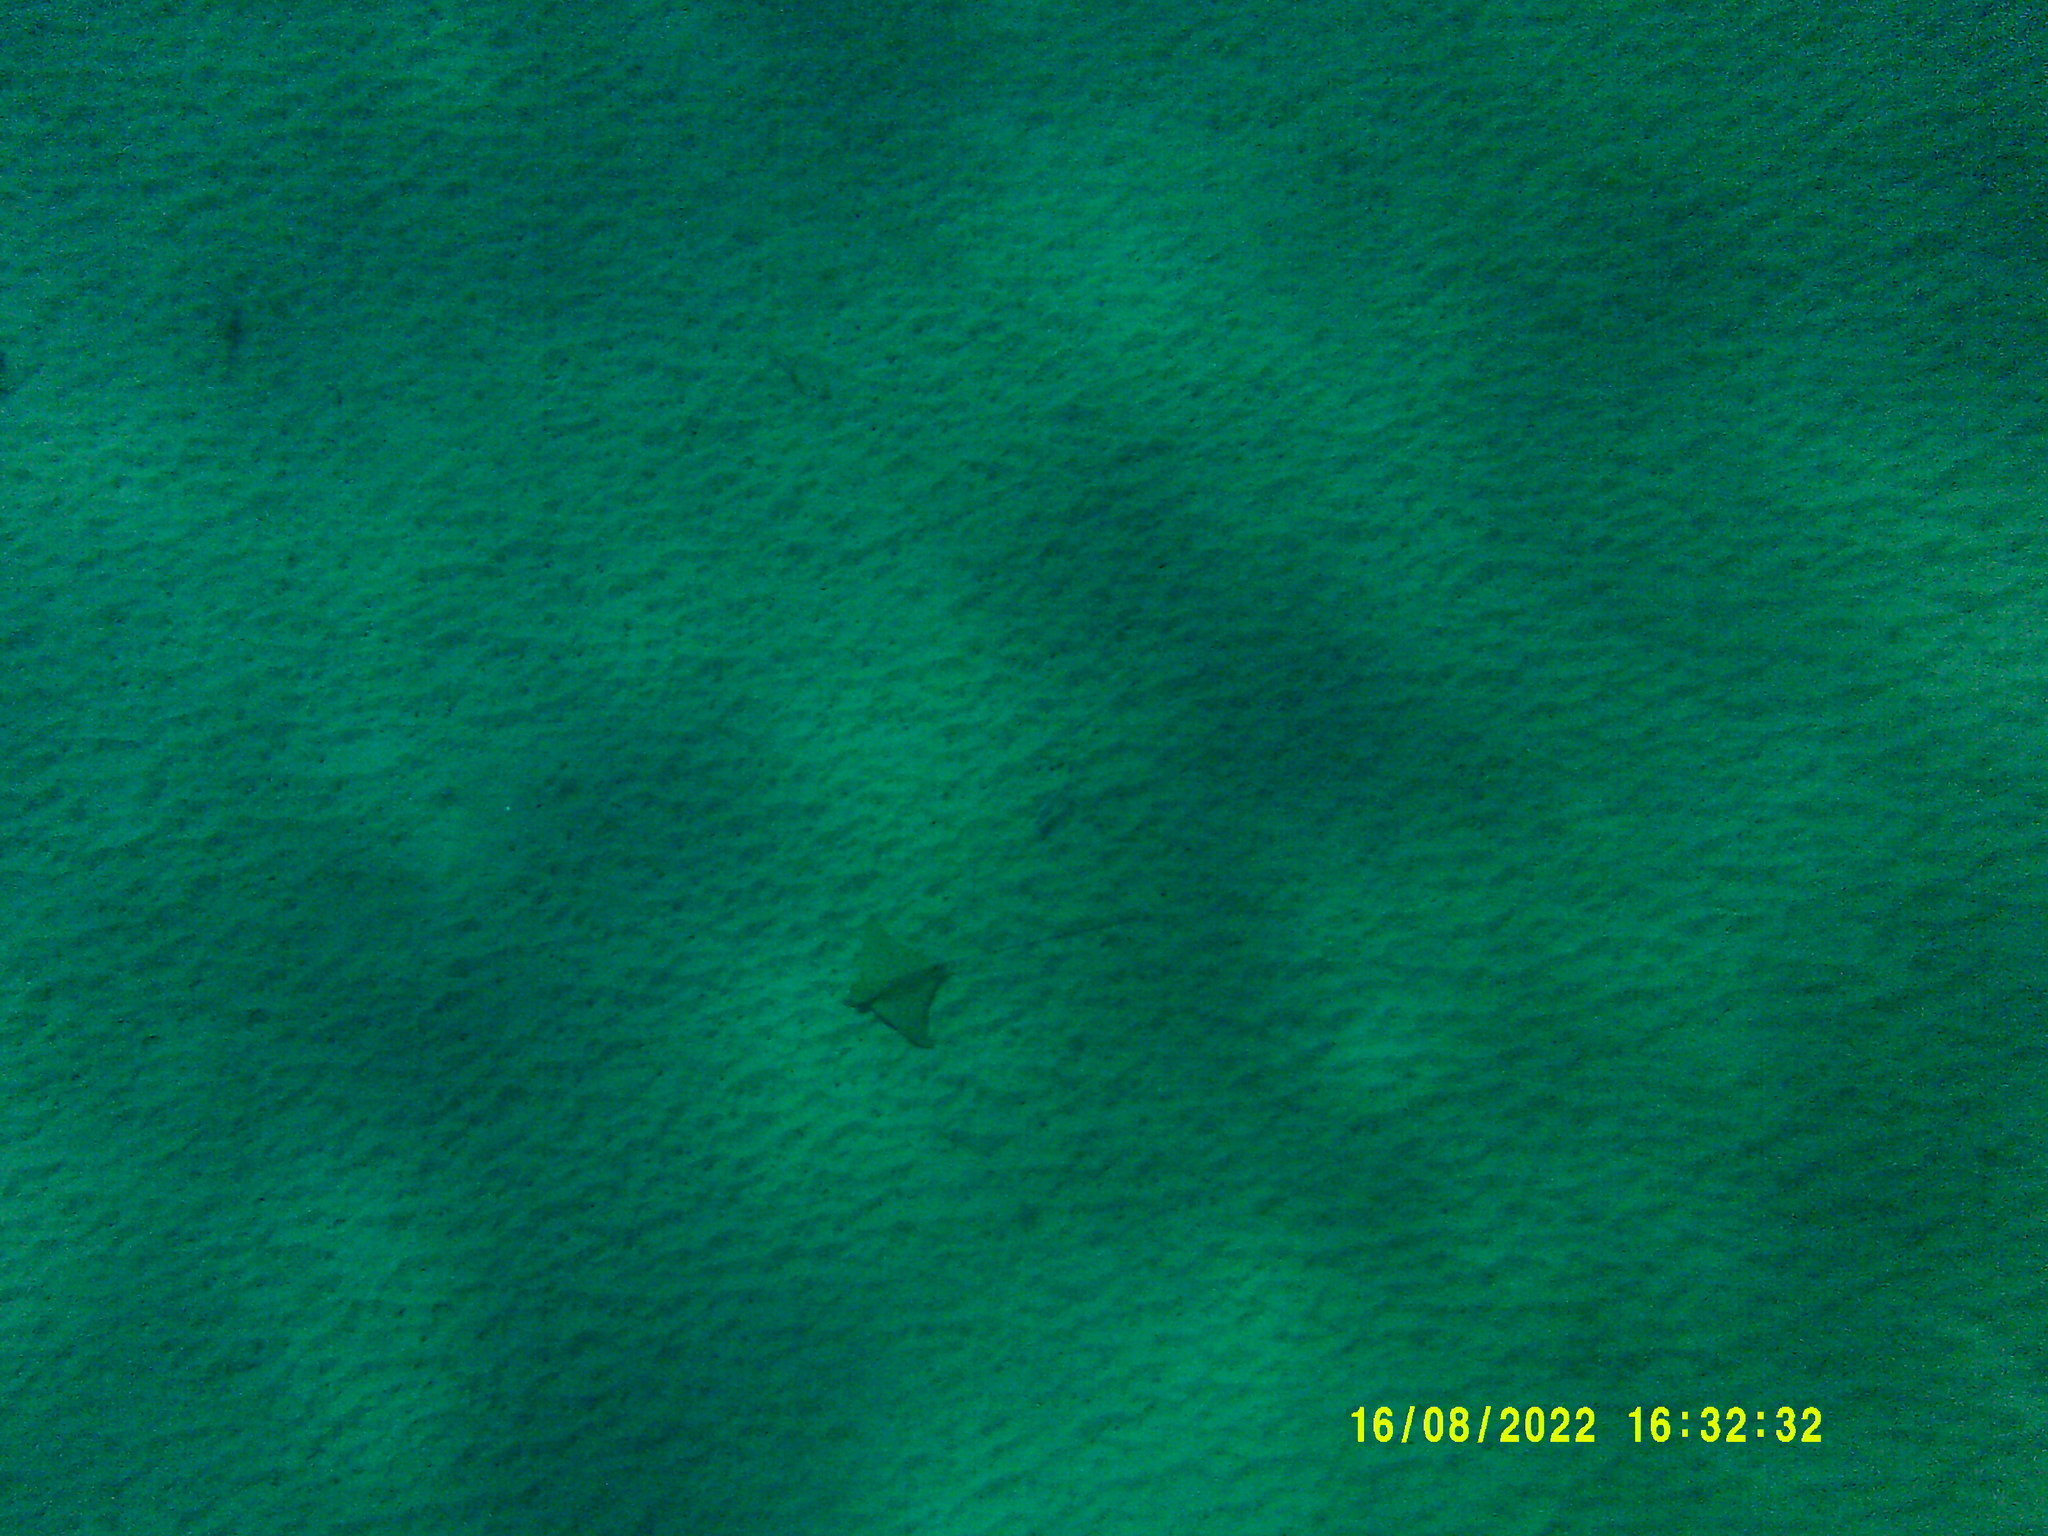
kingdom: Animalia
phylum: Chordata
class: Elasmobranchii
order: Myliobatiformes
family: Myliobatidae
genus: Aetomylaeus
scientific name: Aetomylaeus bovinus
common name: Bull ray
